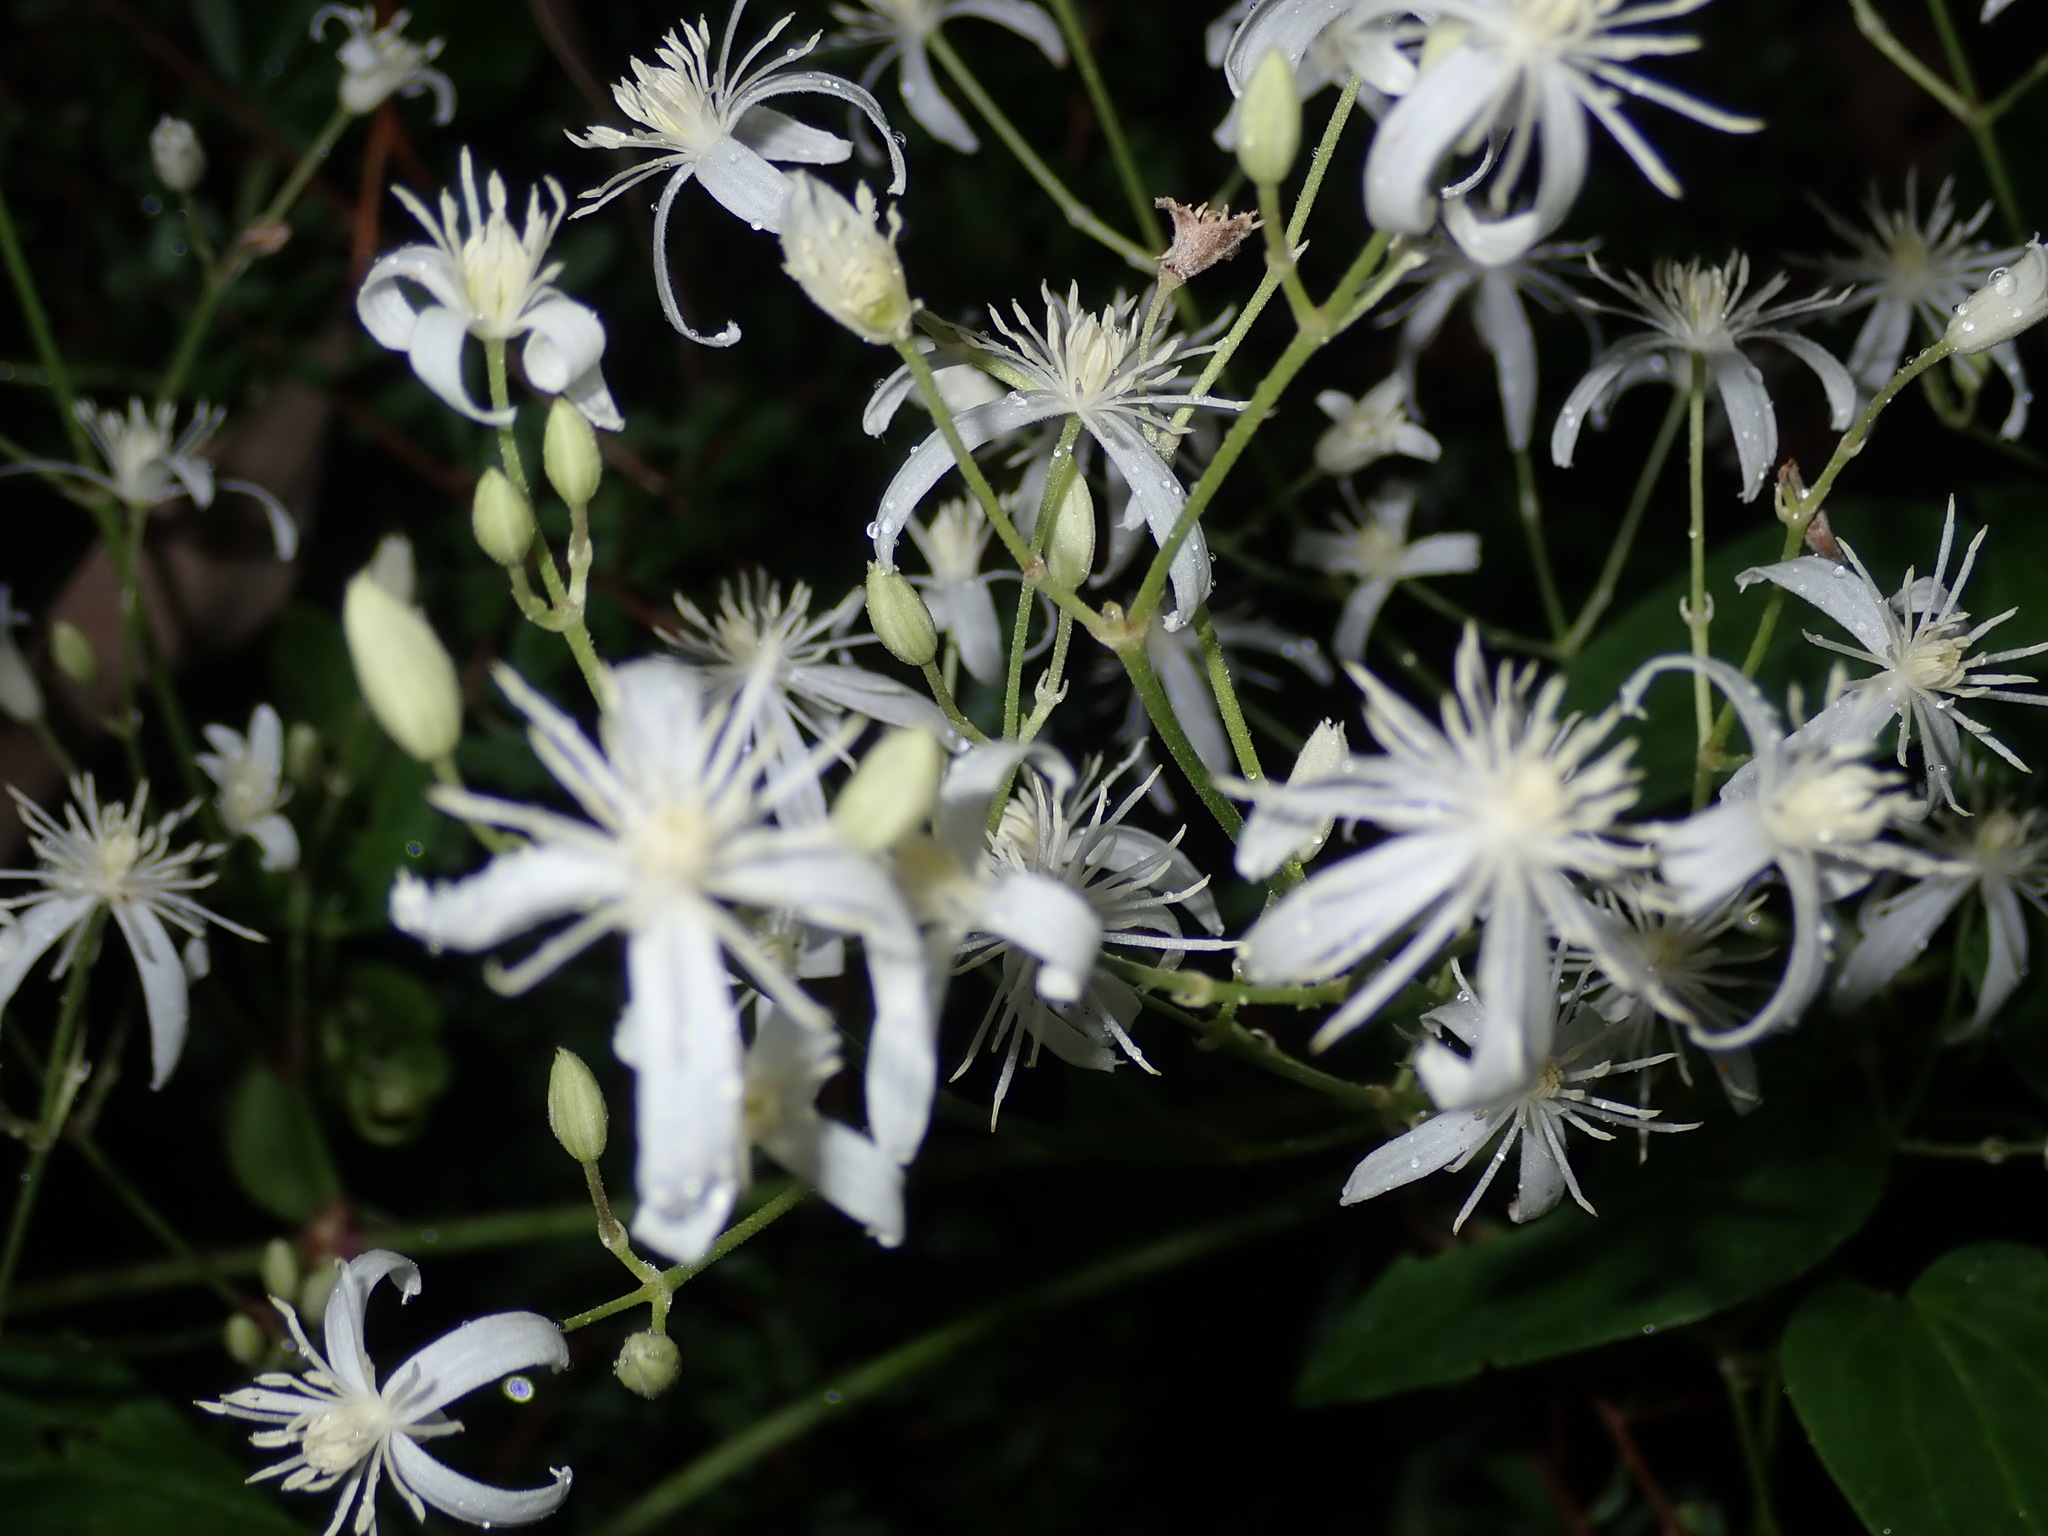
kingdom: Plantae
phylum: Tracheophyta
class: Magnoliopsida
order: Ranunculales
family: Ranunculaceae
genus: Clematis
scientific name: Clematis glycinoides
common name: Forest clematis
